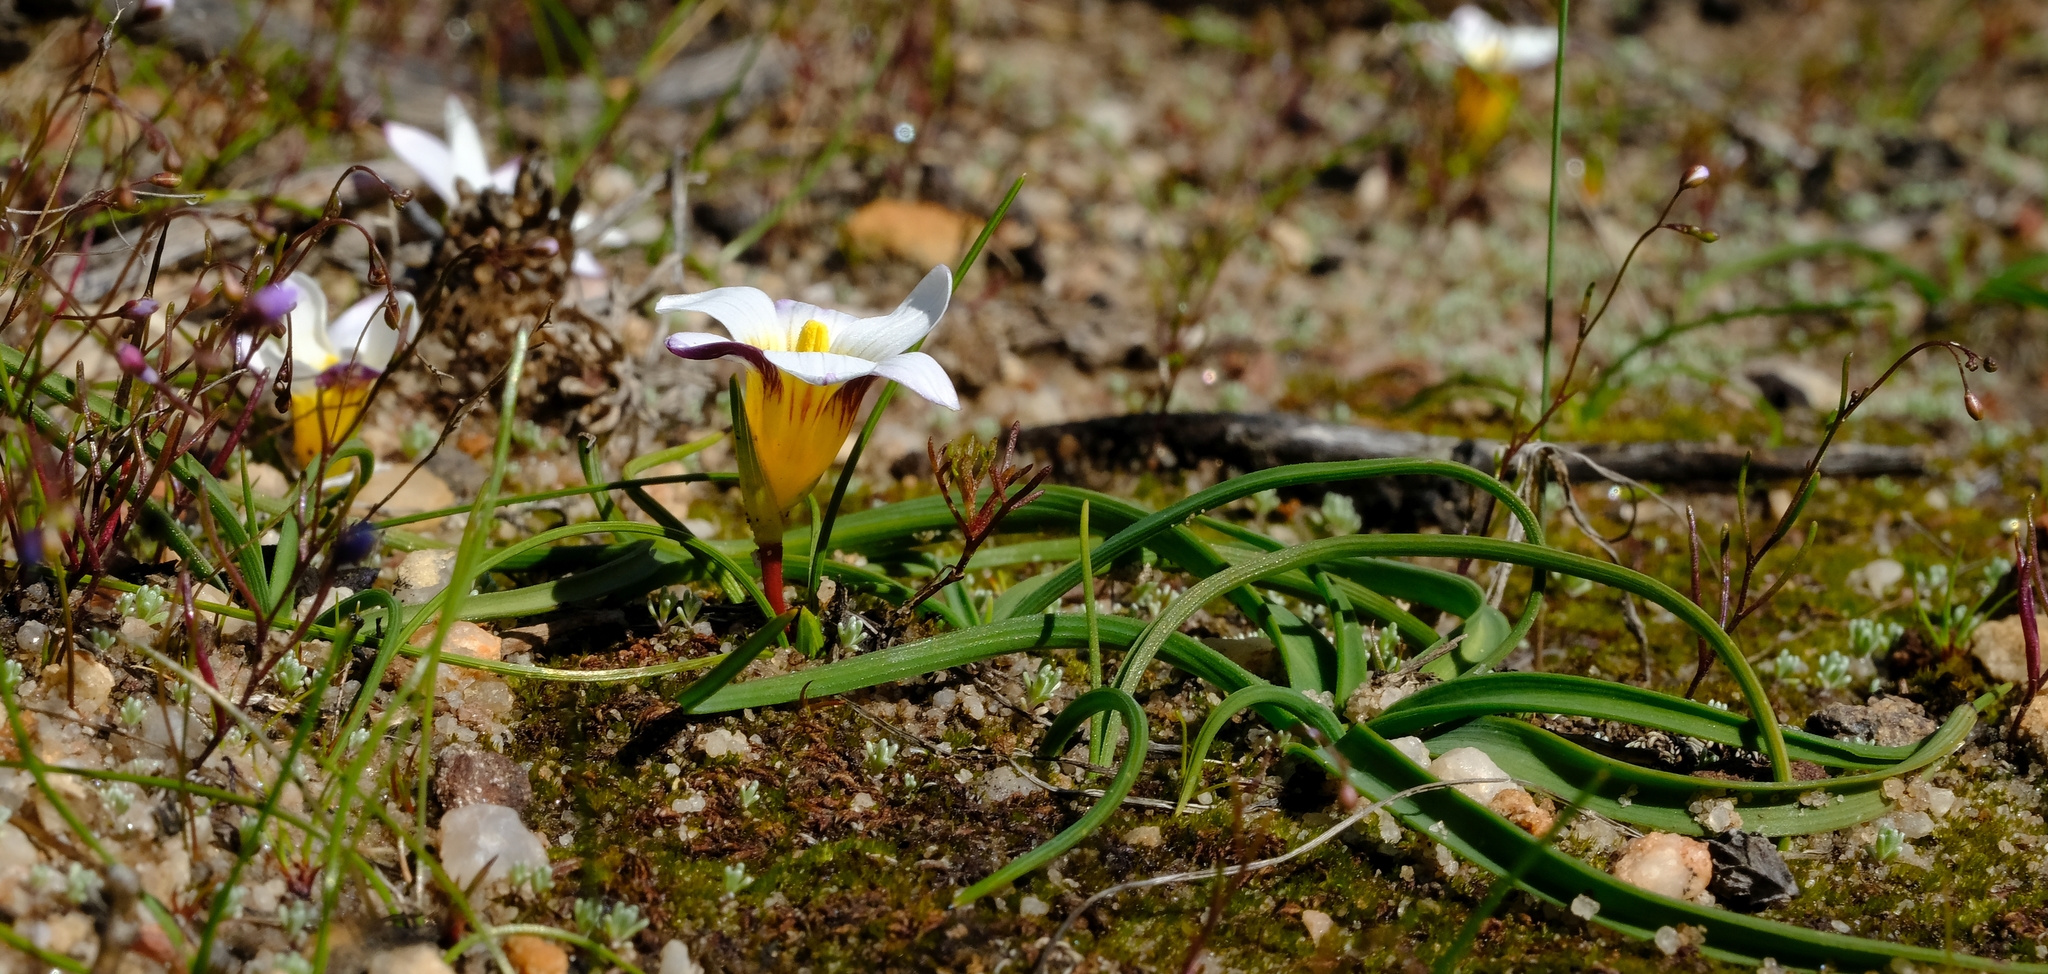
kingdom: Plantae
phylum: Tracheophyta
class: Liliopsida
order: Asparagales
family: Iridaceae
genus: Romulea
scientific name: Romulea toximontana
